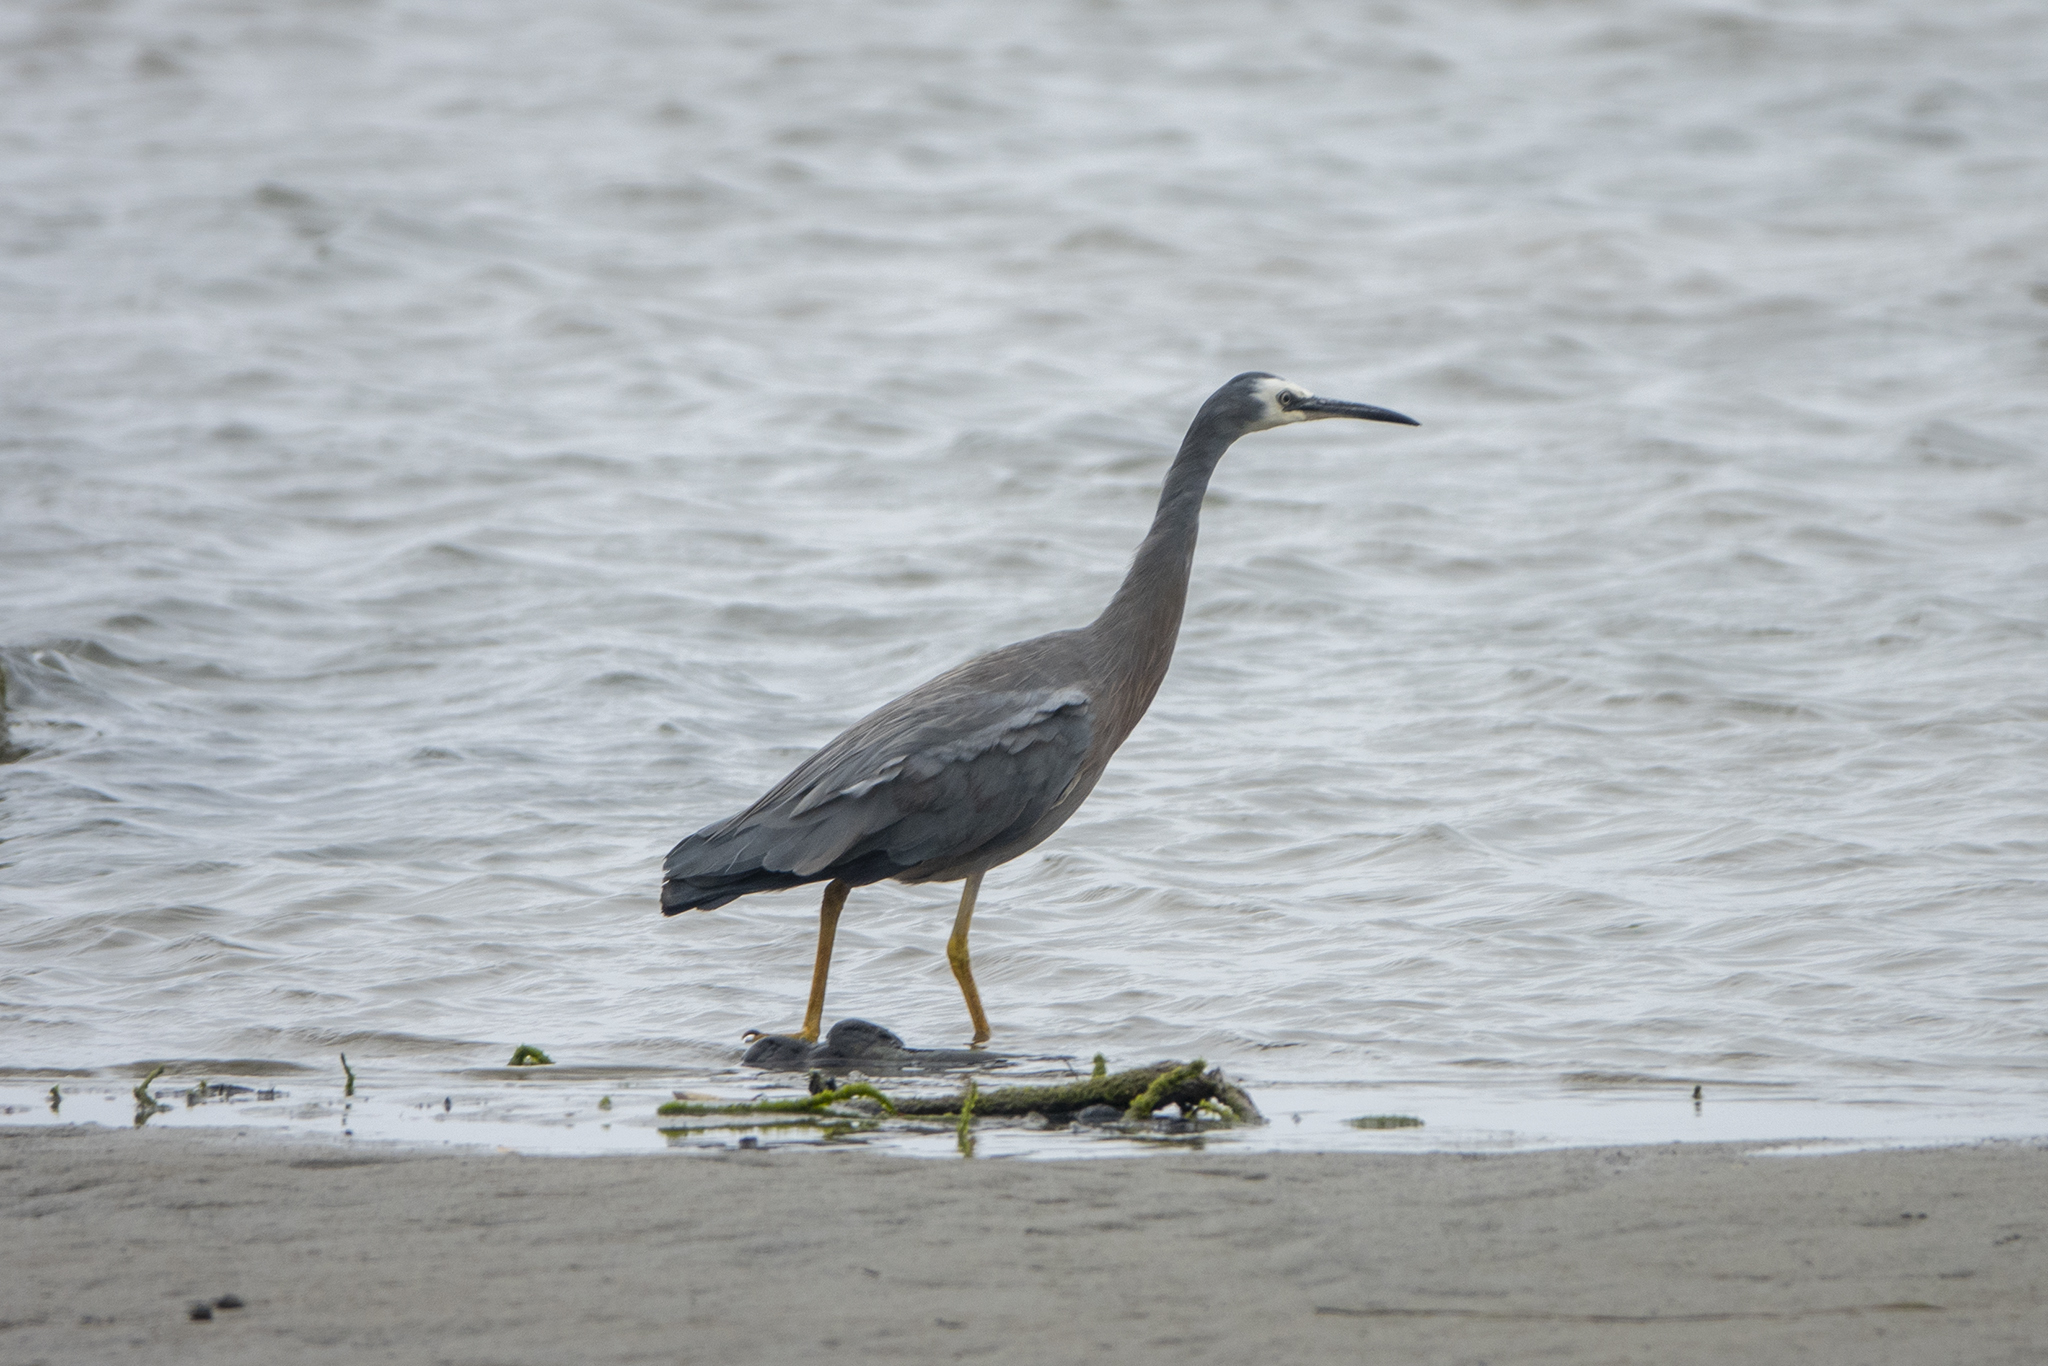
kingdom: Animalia
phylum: Chordata
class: Aves
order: Pelecaniformes
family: Ardeidae
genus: Egretta
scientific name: Egretta novaehollandiae
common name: White-faced heron
